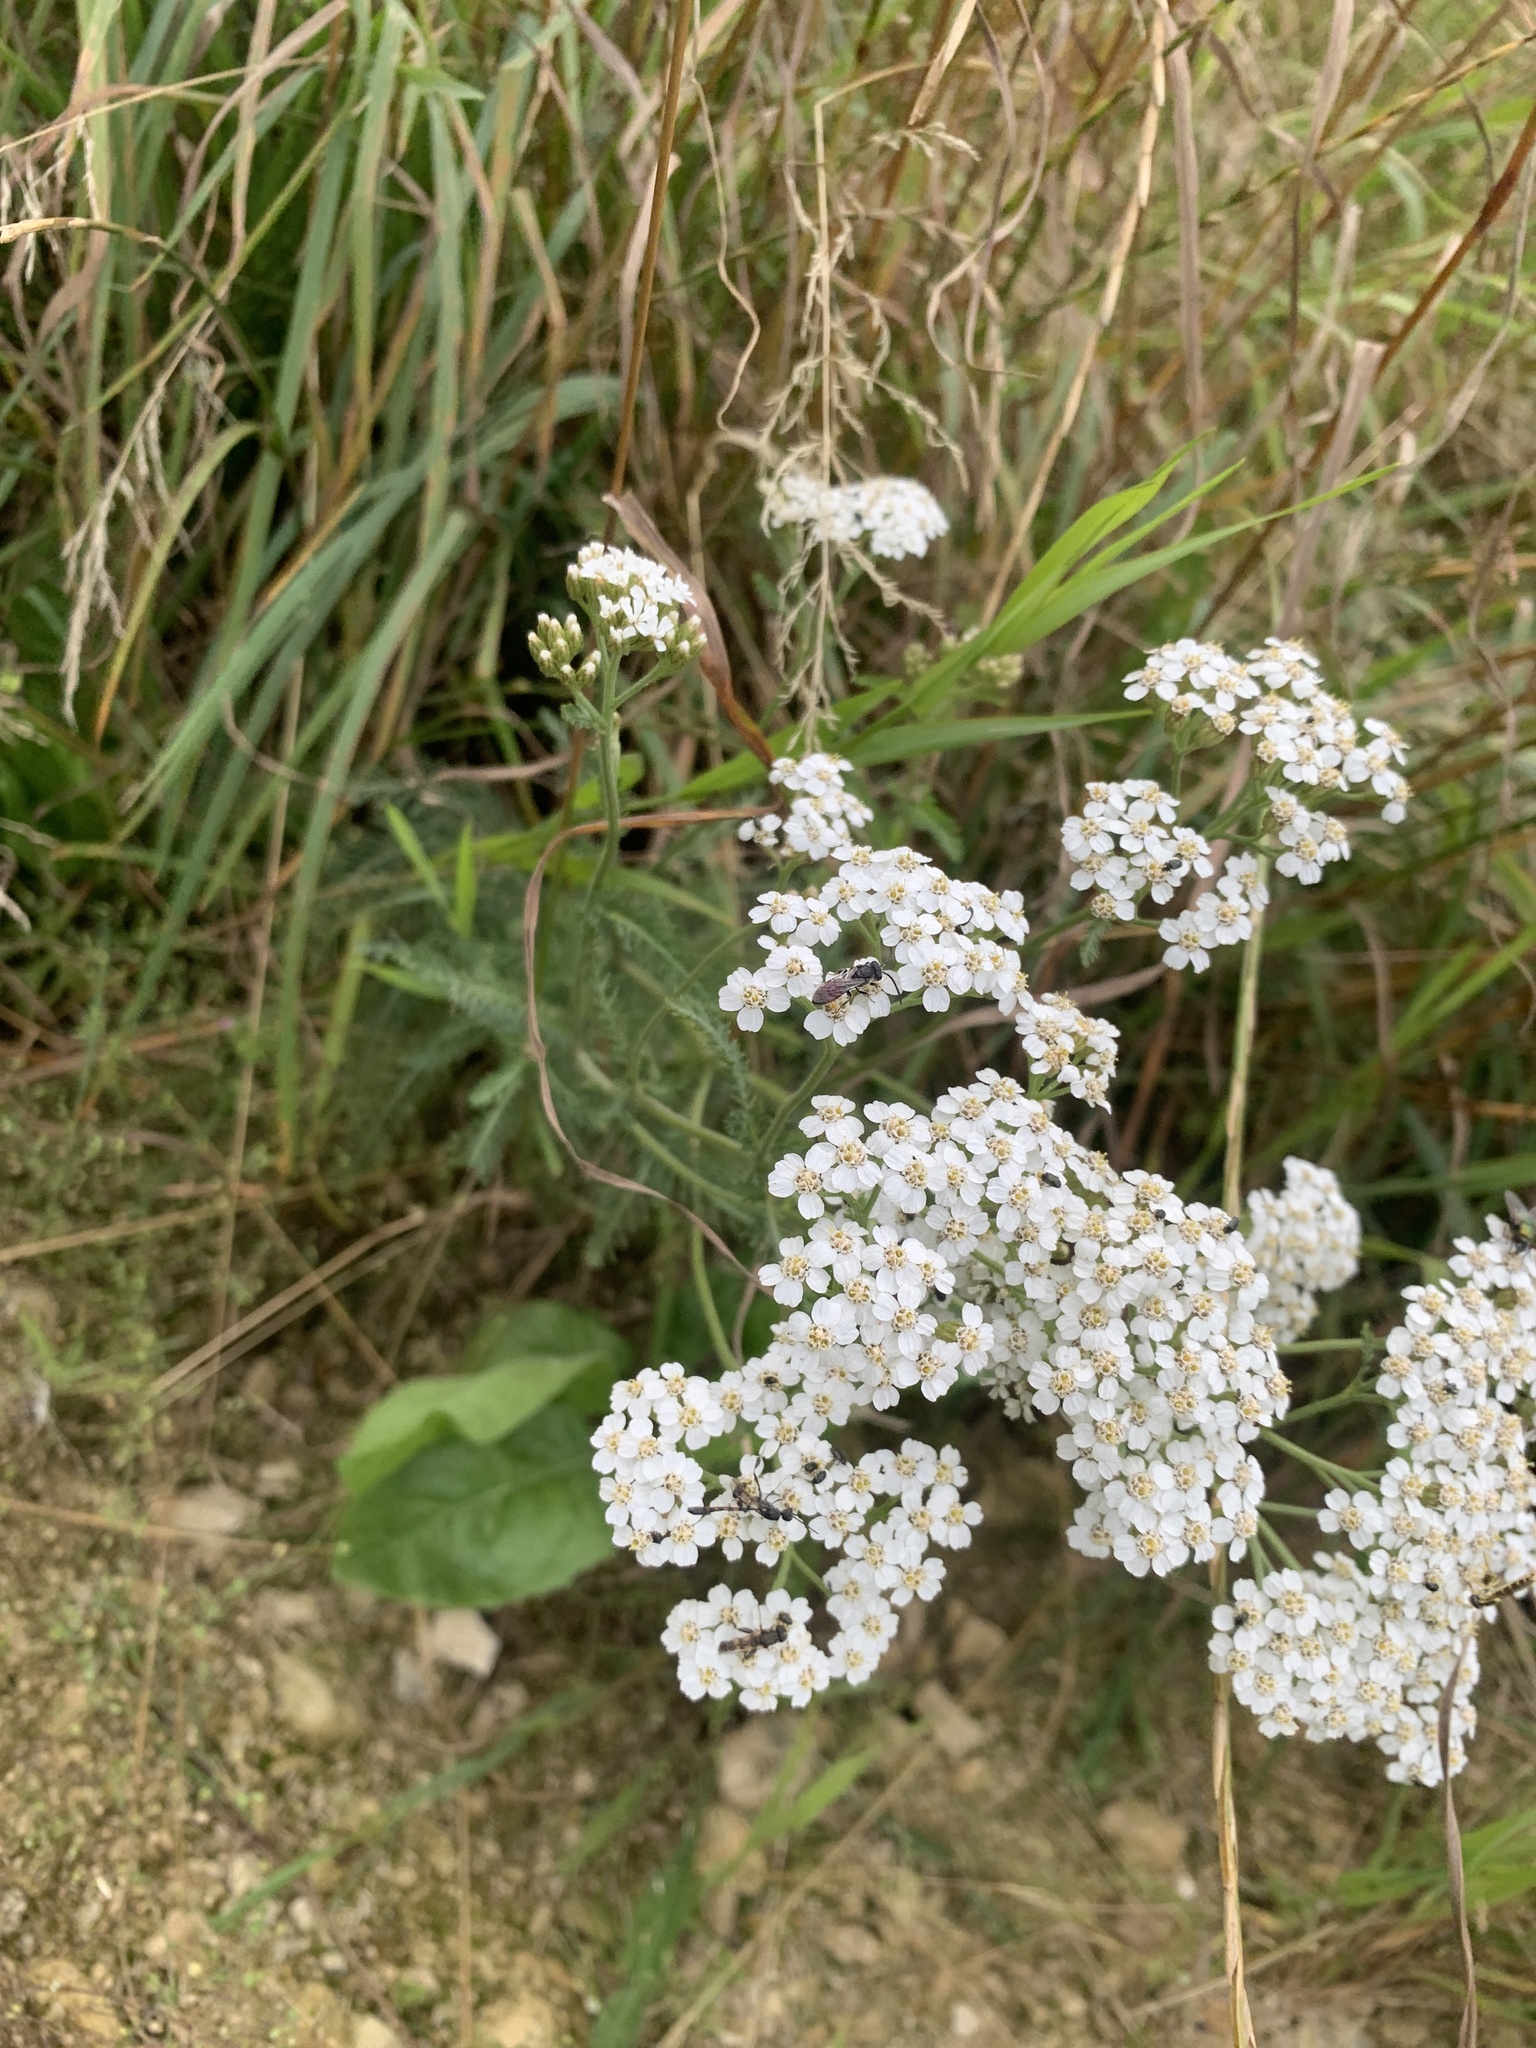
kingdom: Plantae
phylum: Tracheophyta
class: Magnoliopsida
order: Asterales
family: Asteraceae
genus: Achillea
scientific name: Achillea millefolium
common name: Yarrow
